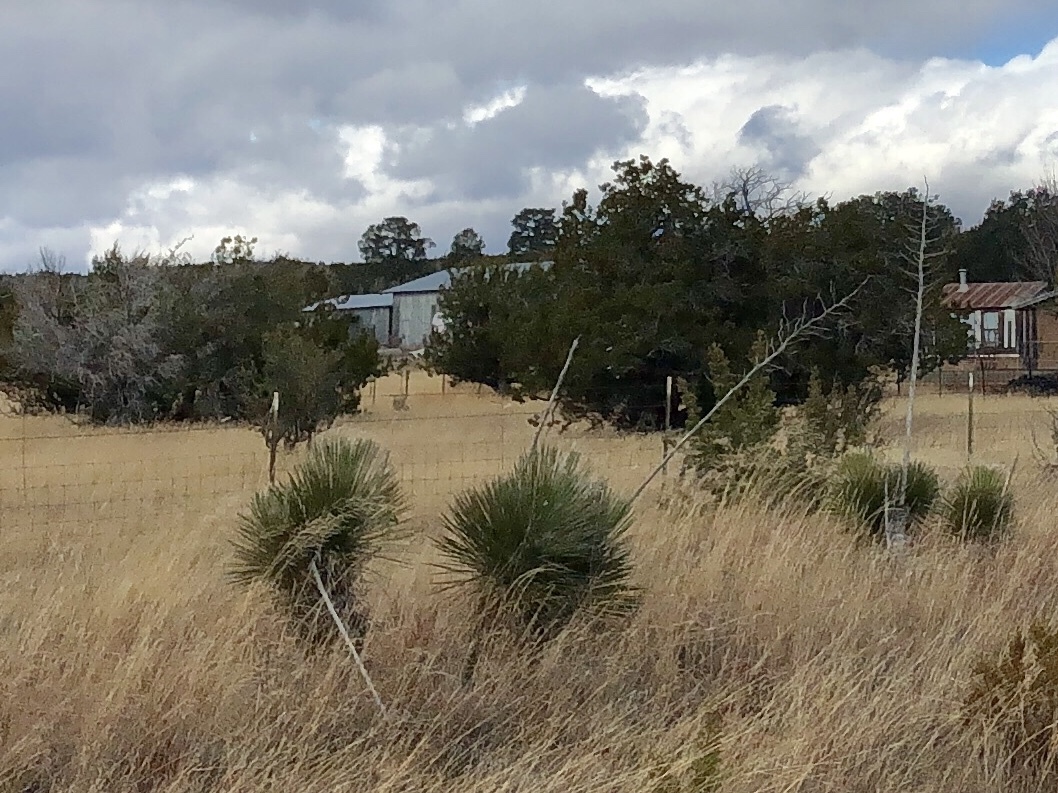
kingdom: Plantae
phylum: Tracheophyta
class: Liliopsida
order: Asparagales
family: Asparagaceae
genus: Yucca
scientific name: Yucca elata
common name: Palmella
